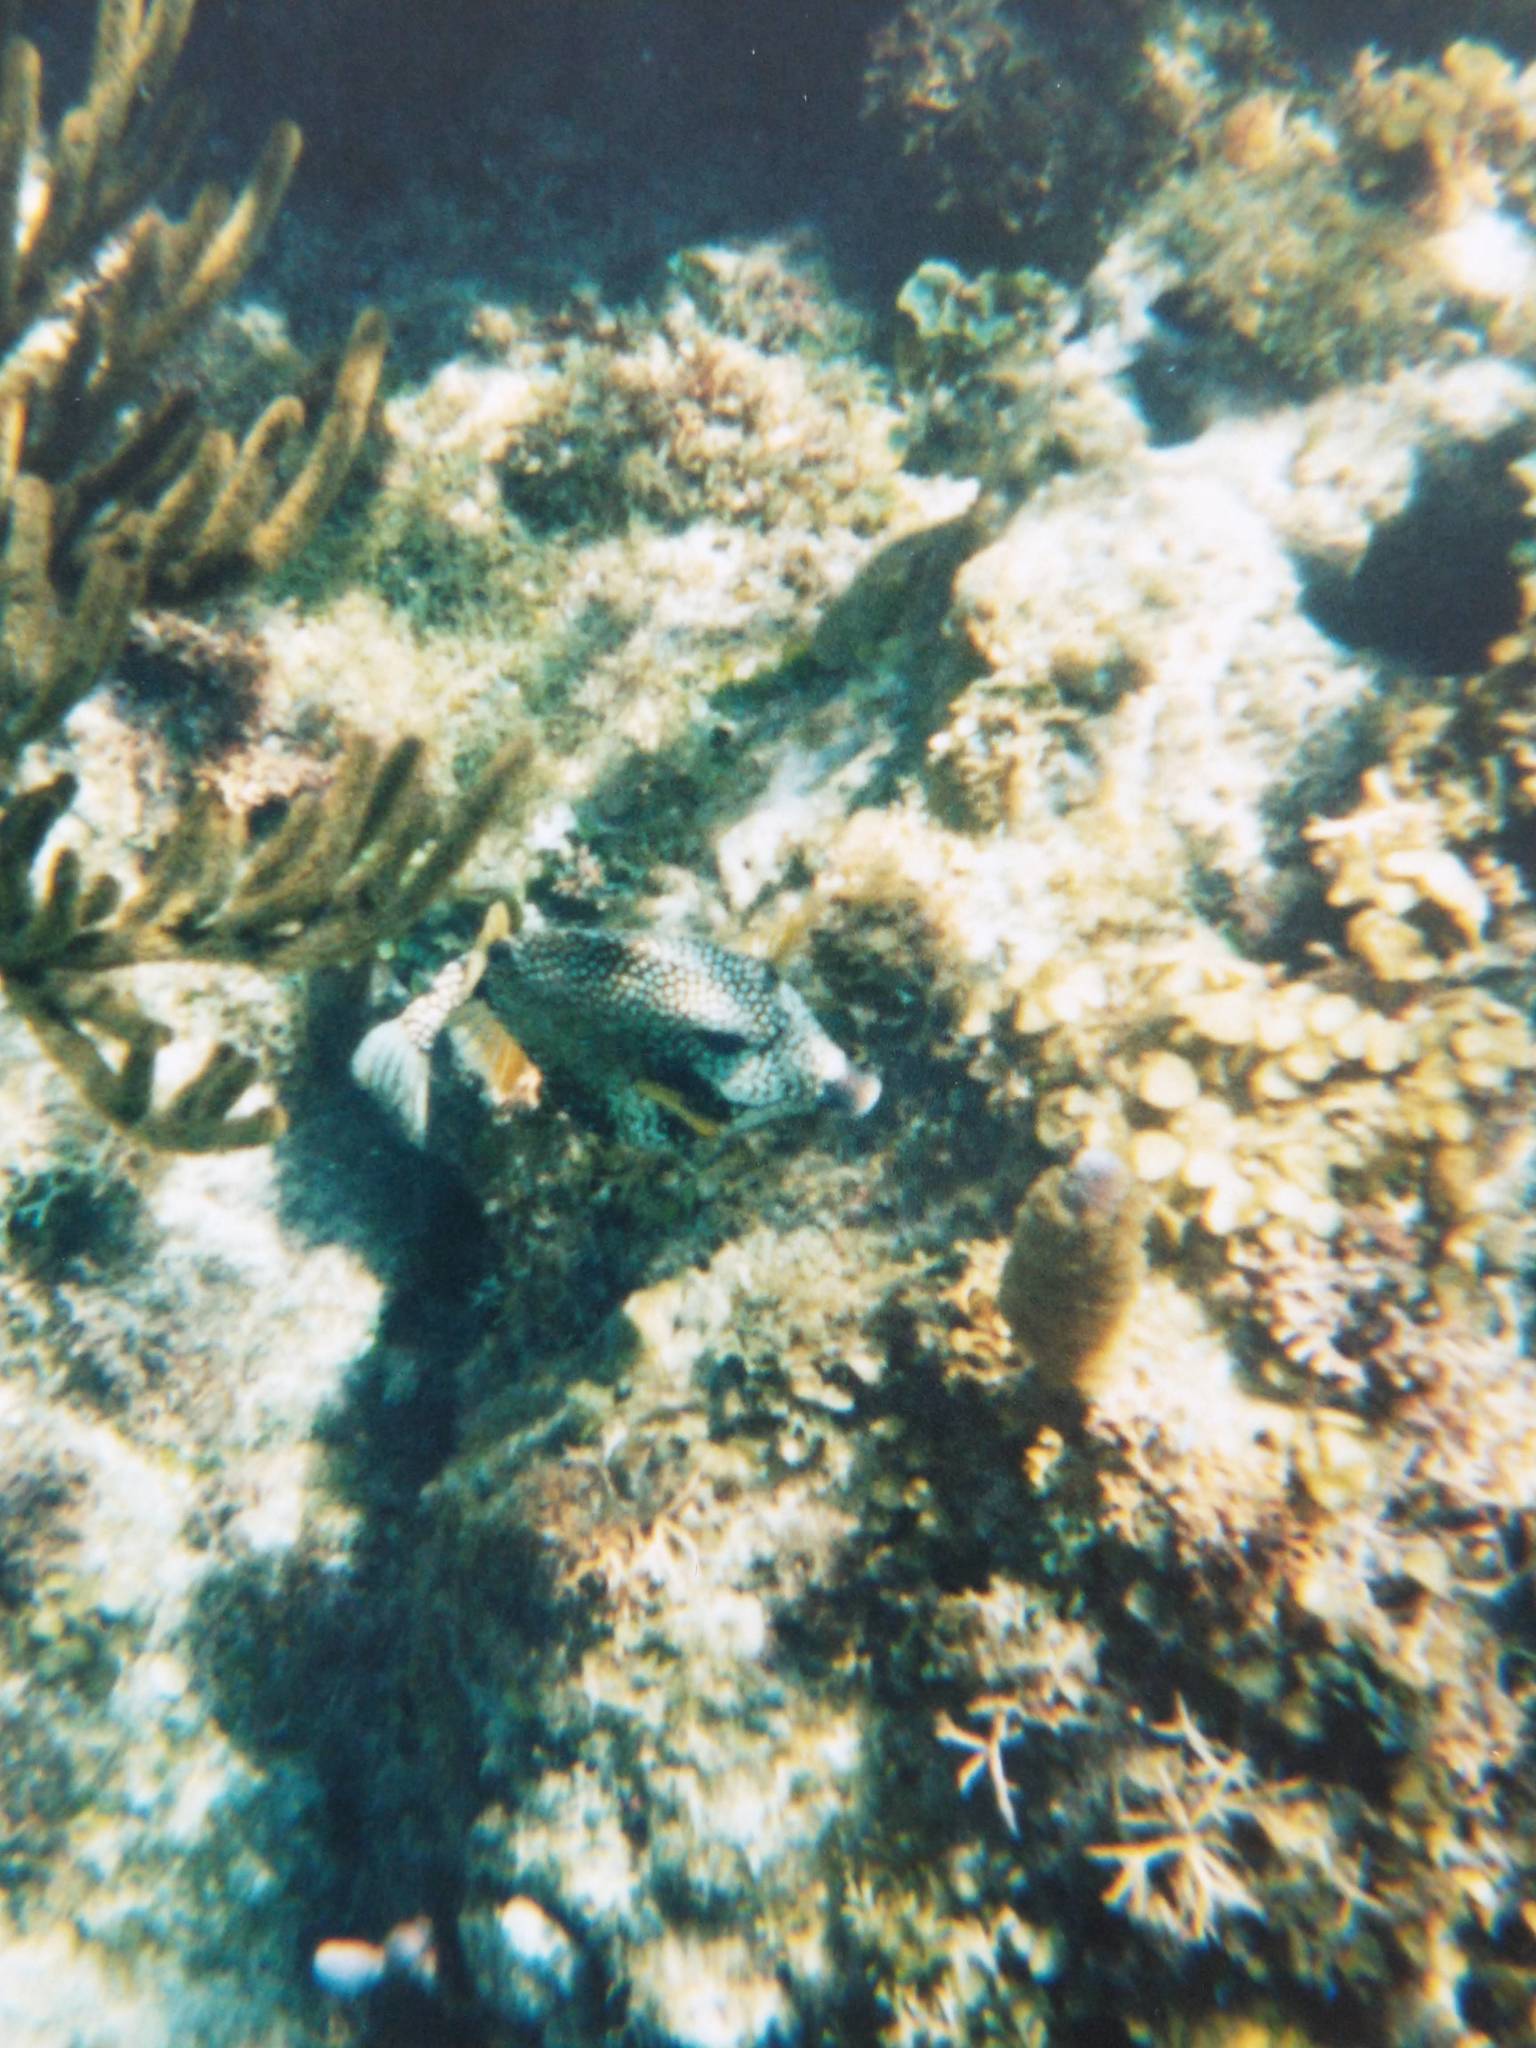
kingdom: Animalia
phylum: Chordata
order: Tetraodontiformes
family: Ostraciidae
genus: Lactophrys
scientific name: Lactophrys triqueter
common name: Smooth trunkfish
